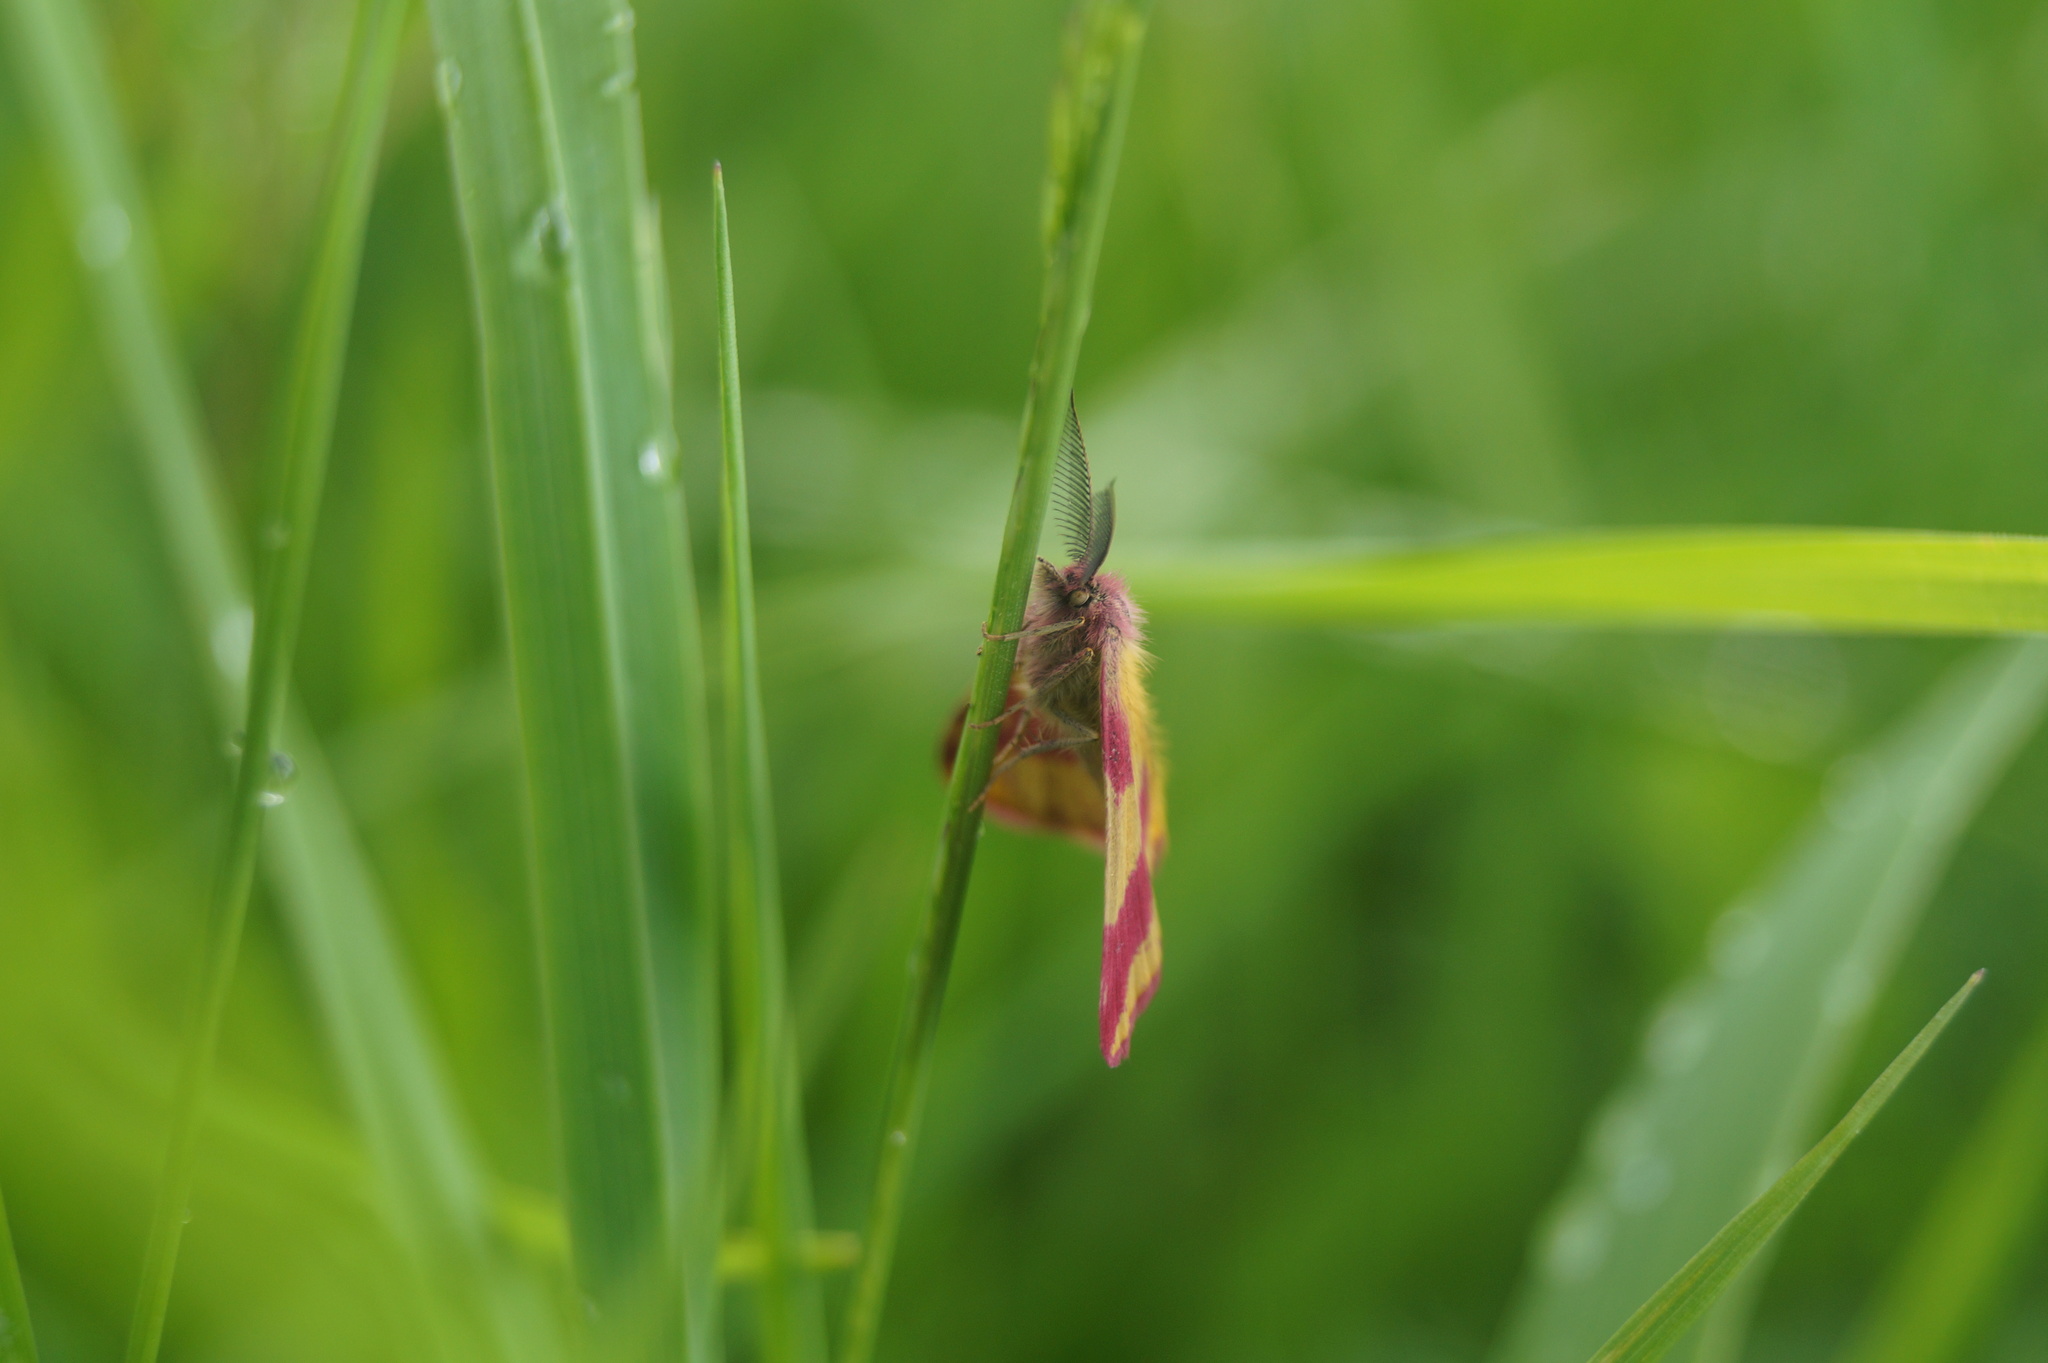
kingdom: Animalia
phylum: Arthropoda
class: Insecta
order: Lepidoptera
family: Geometridae
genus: Lythria
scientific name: Lythria cruentaria
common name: Purple-barred yellow
